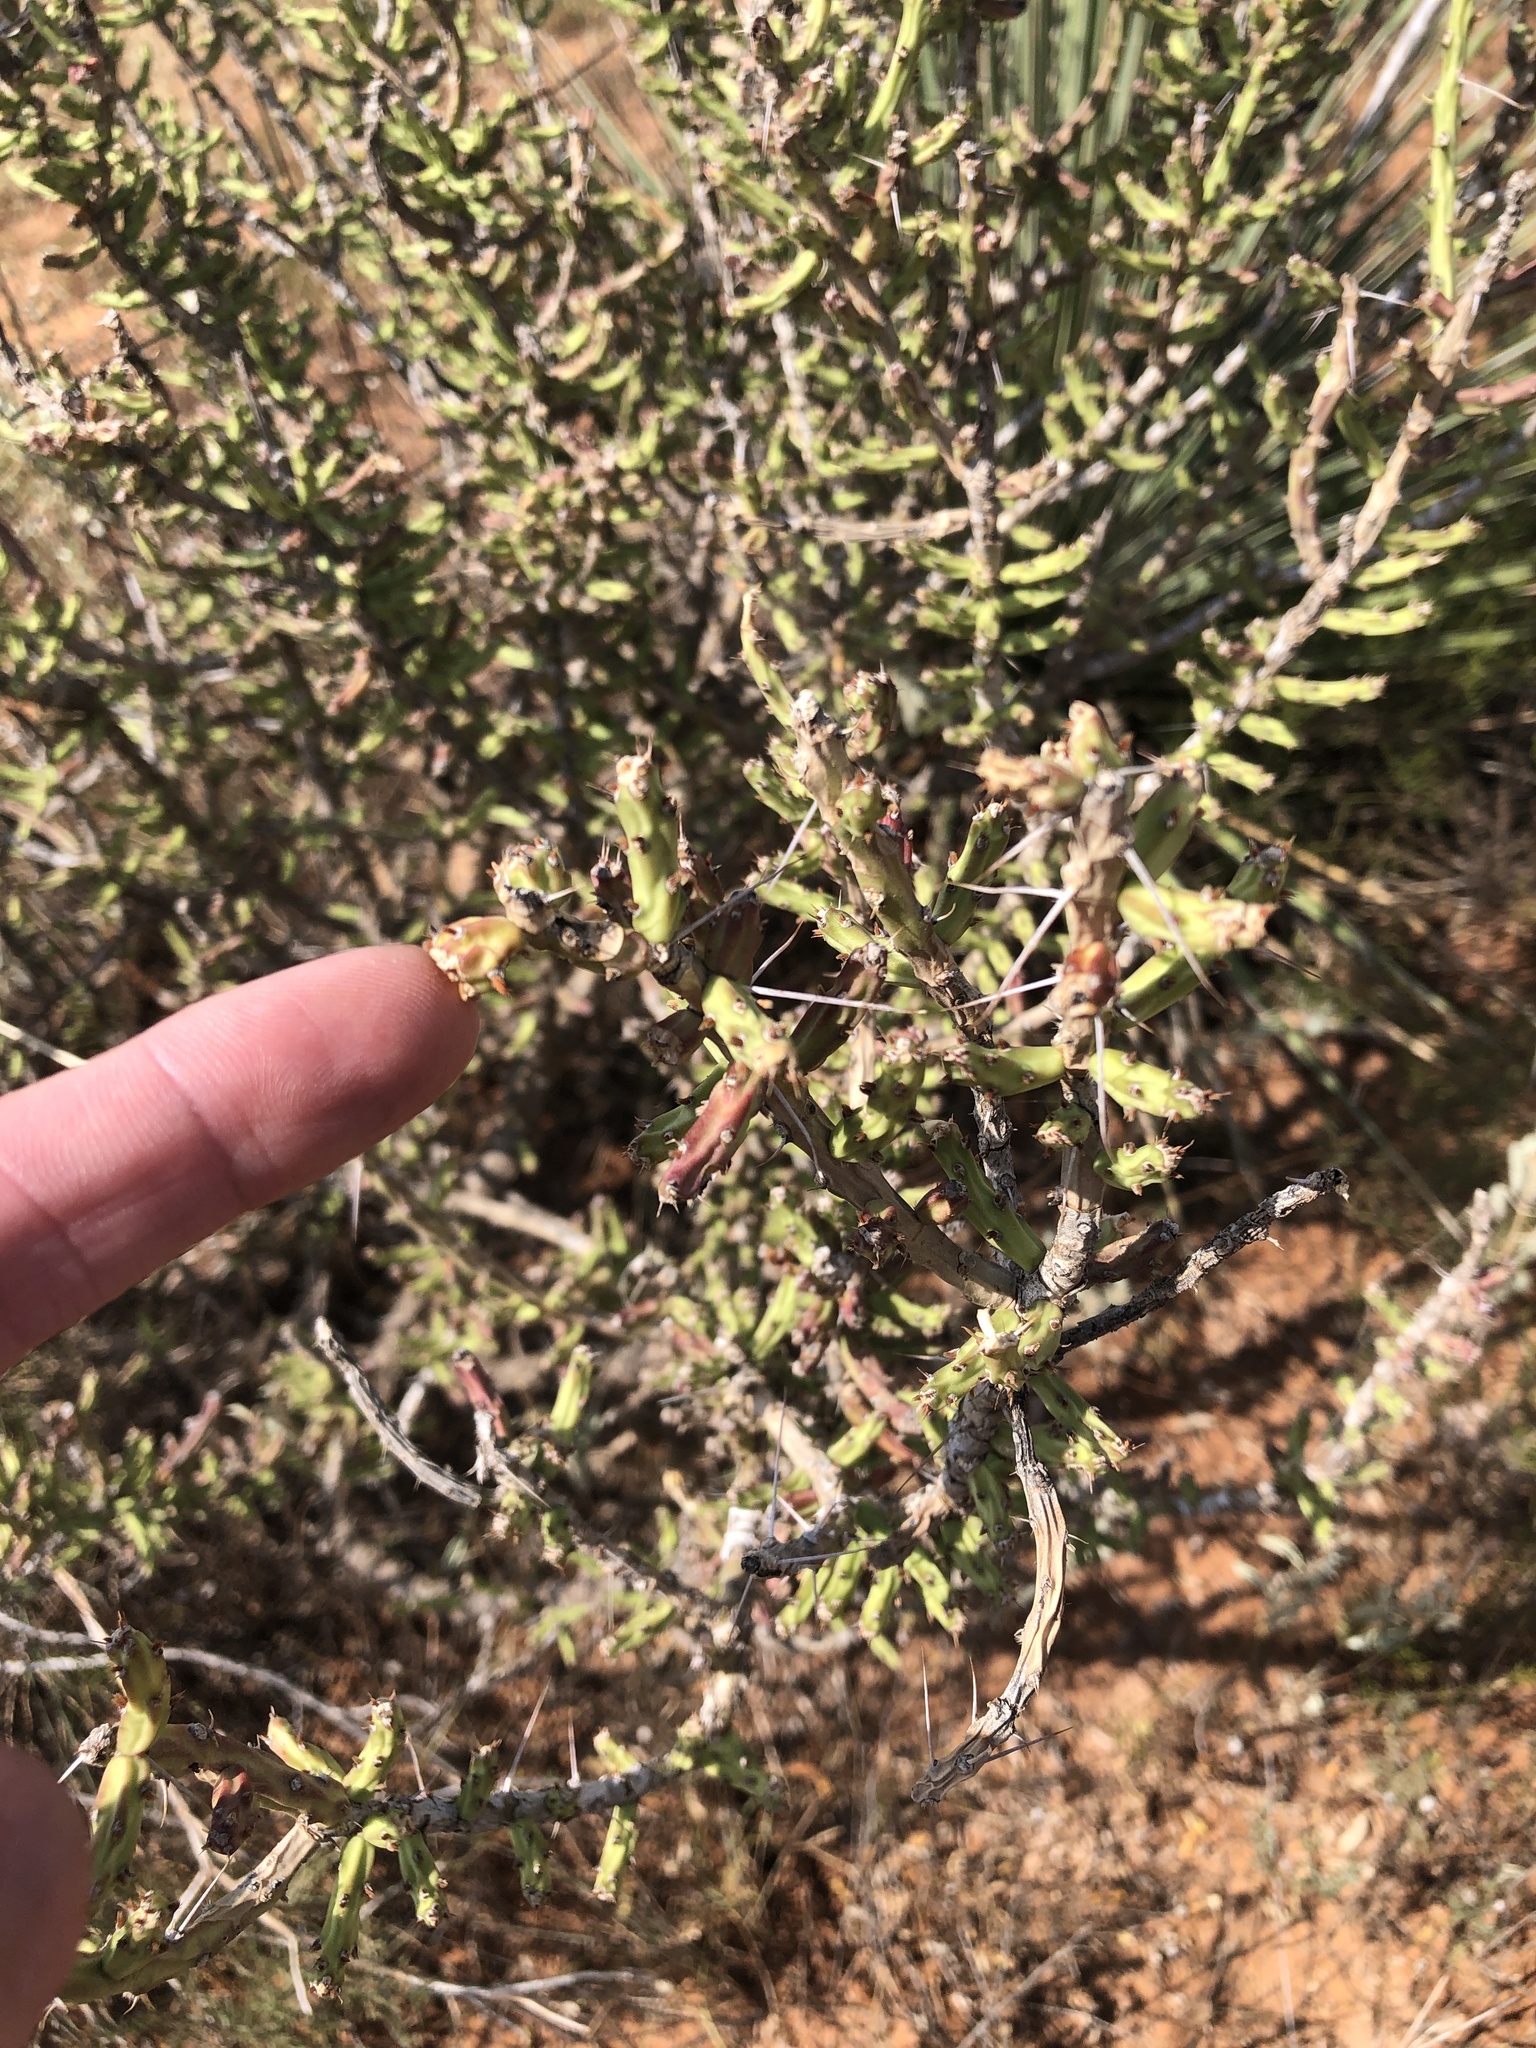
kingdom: Plantae
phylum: Tracheophyta
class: Magnoliopsida
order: Caryophyllales
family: Cactaceae
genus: Cylindropuntia
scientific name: Cylindropuntia leptocaulis
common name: Christmas cactus
